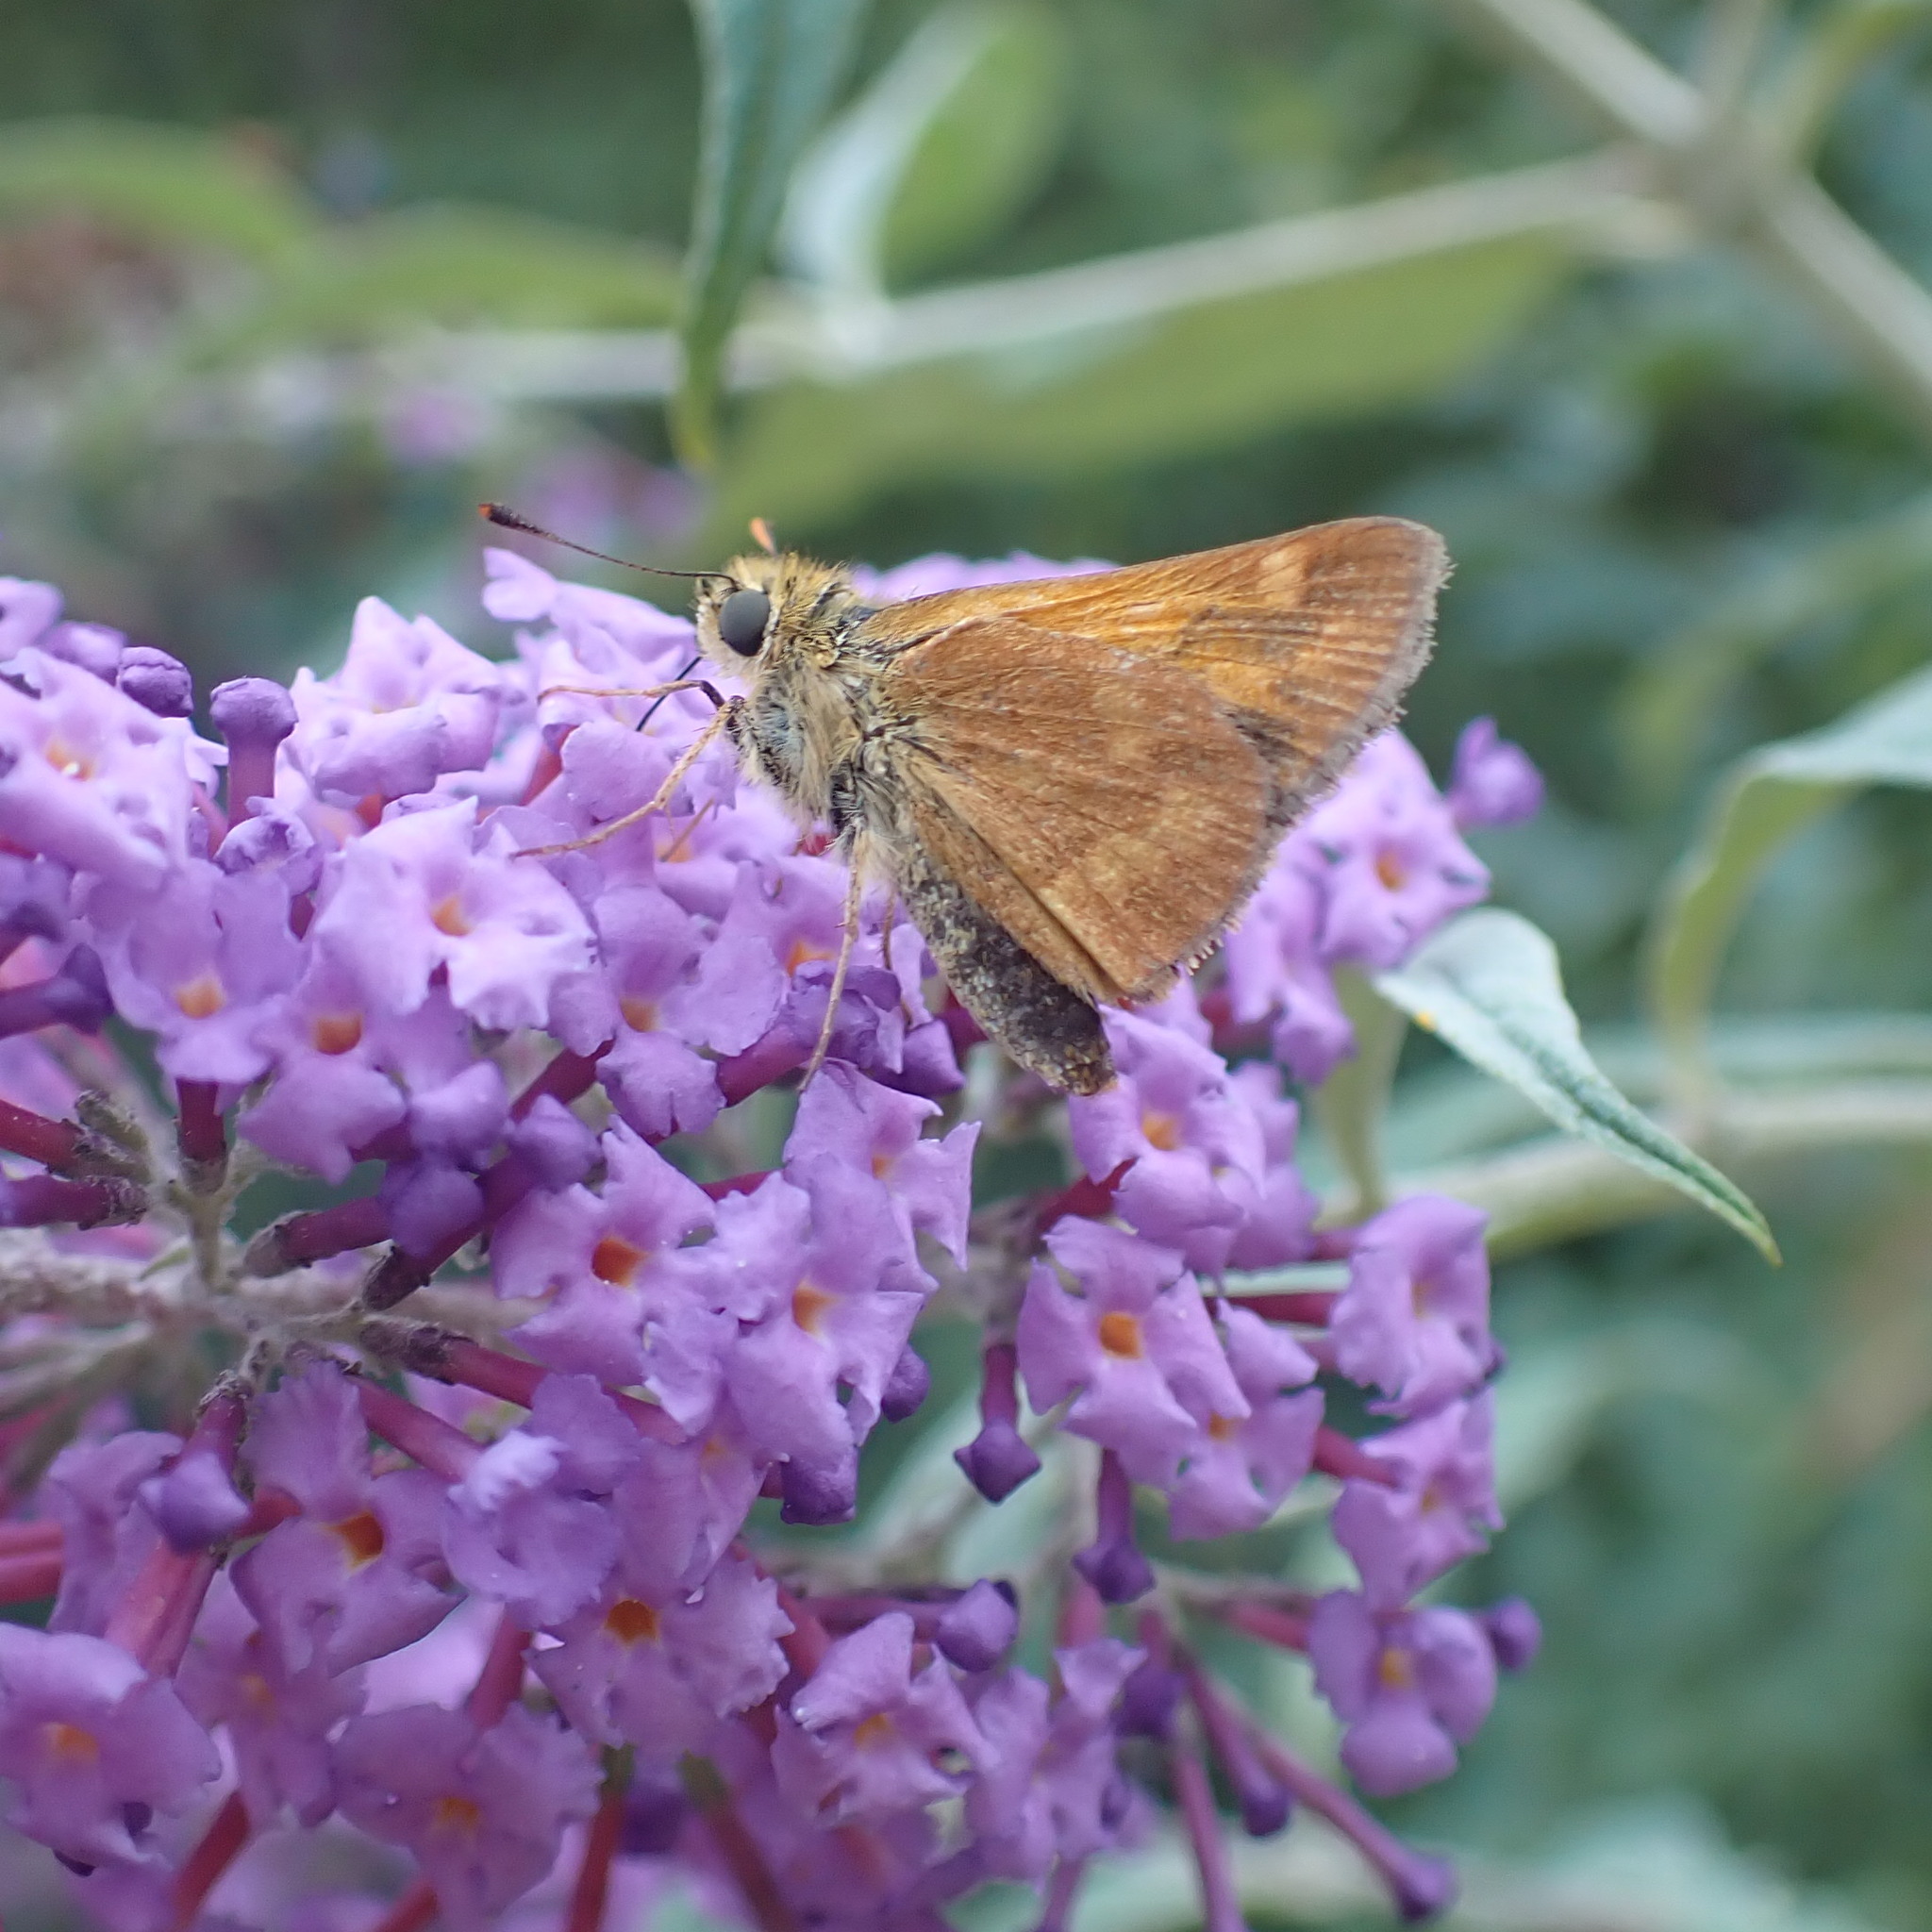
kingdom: Animalia
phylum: Arthropoda
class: Insecta
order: Lepidoptera
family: Hesperiidae
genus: Ochlodes
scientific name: Ochlodes sylvanoides
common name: Woodland skipper
